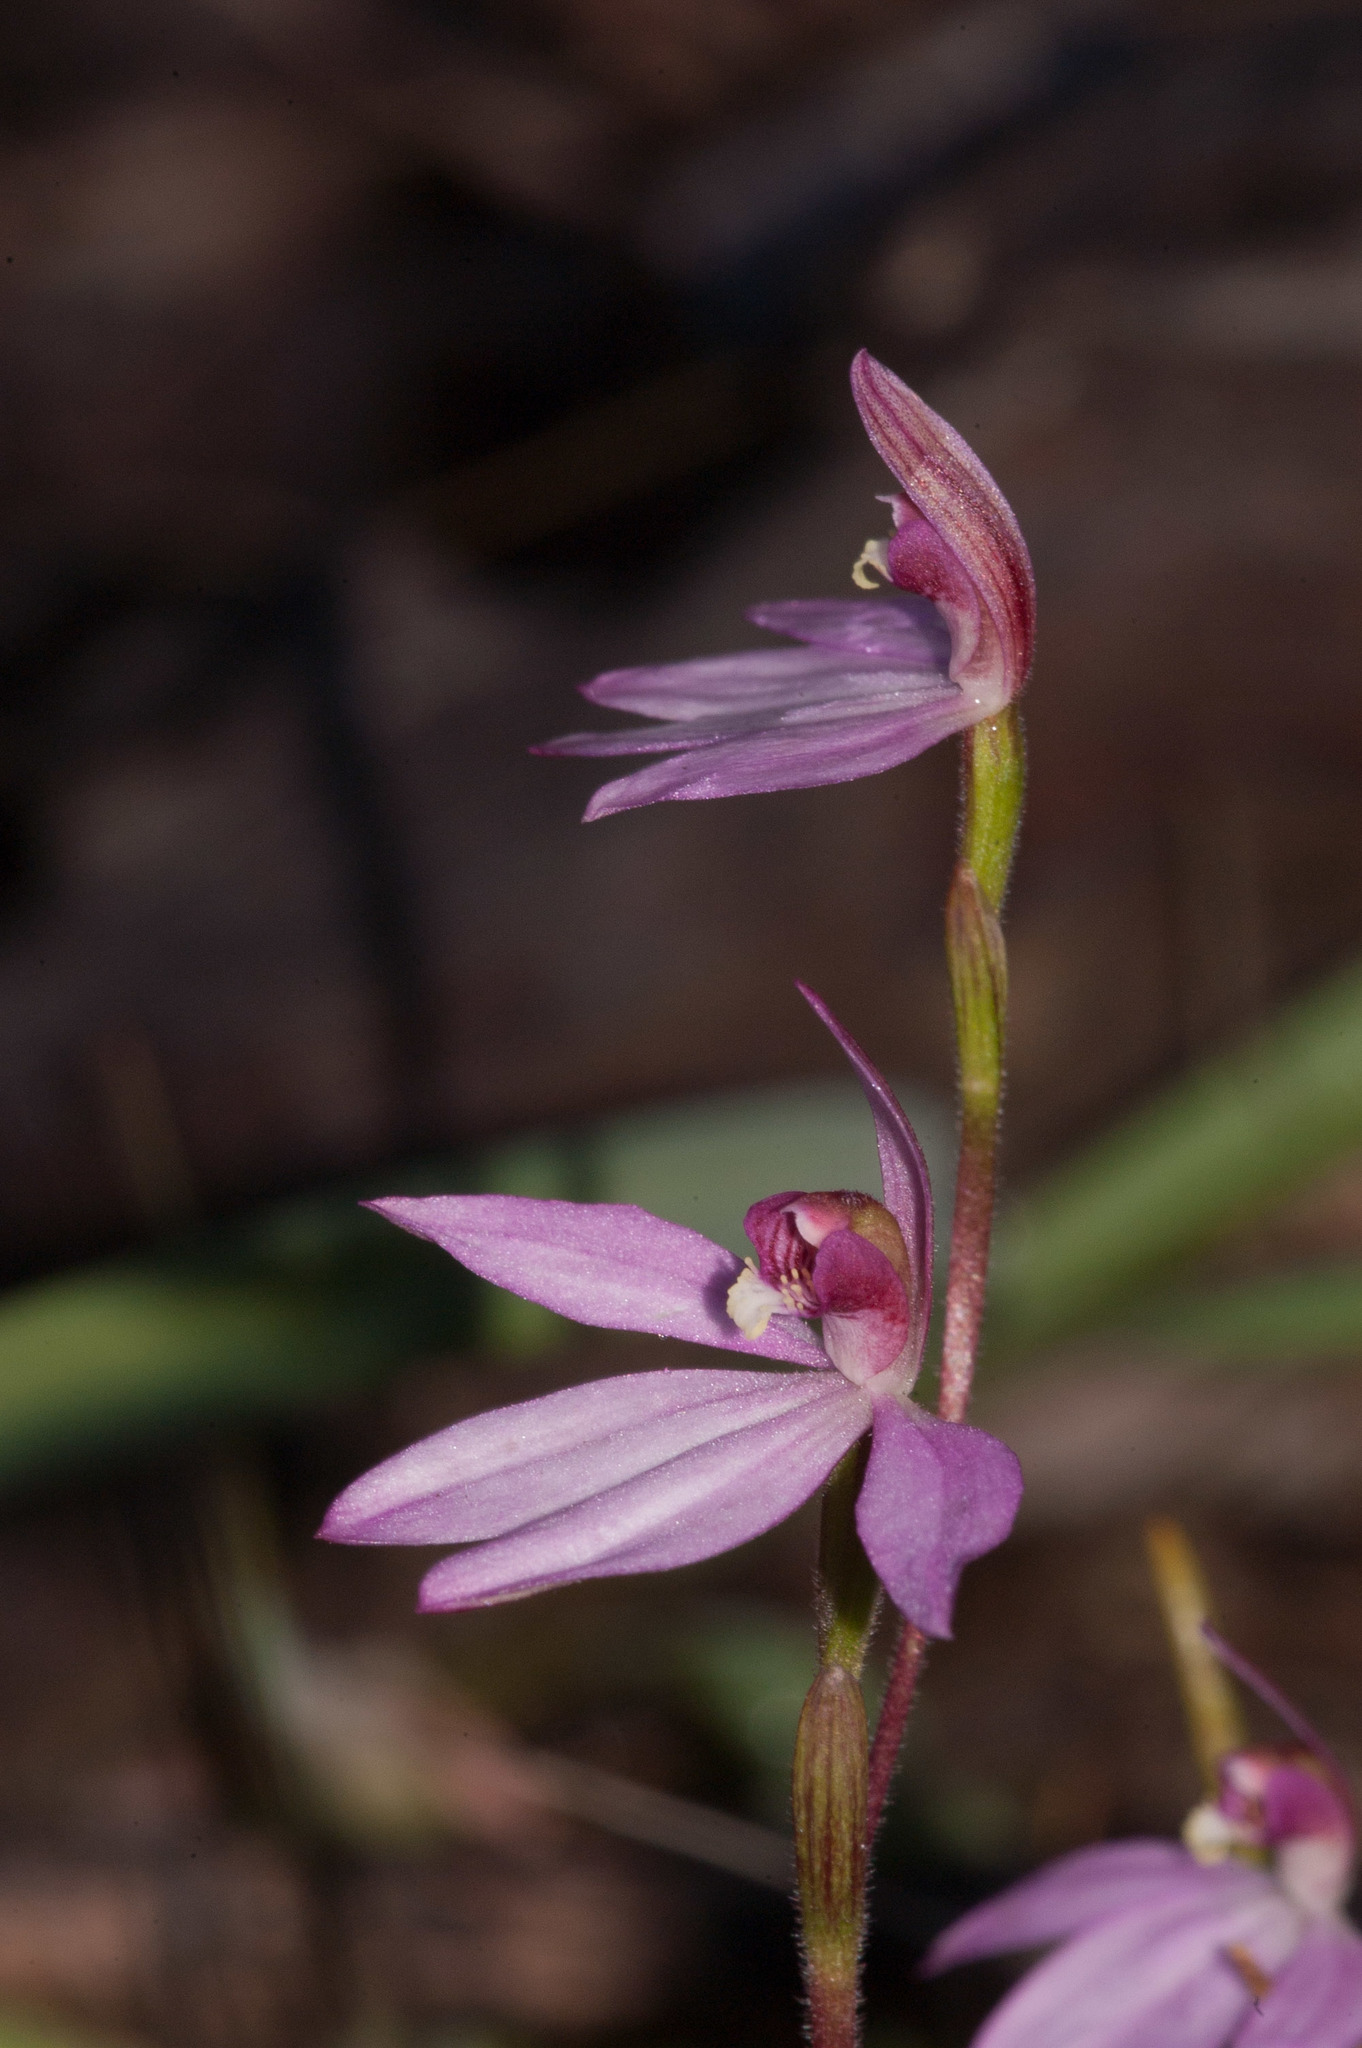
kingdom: Plantae
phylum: Tracheophyta
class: Liliopsida
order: Asparagales
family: Orchidaceae
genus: Caladenia
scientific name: Caladenia ornata
